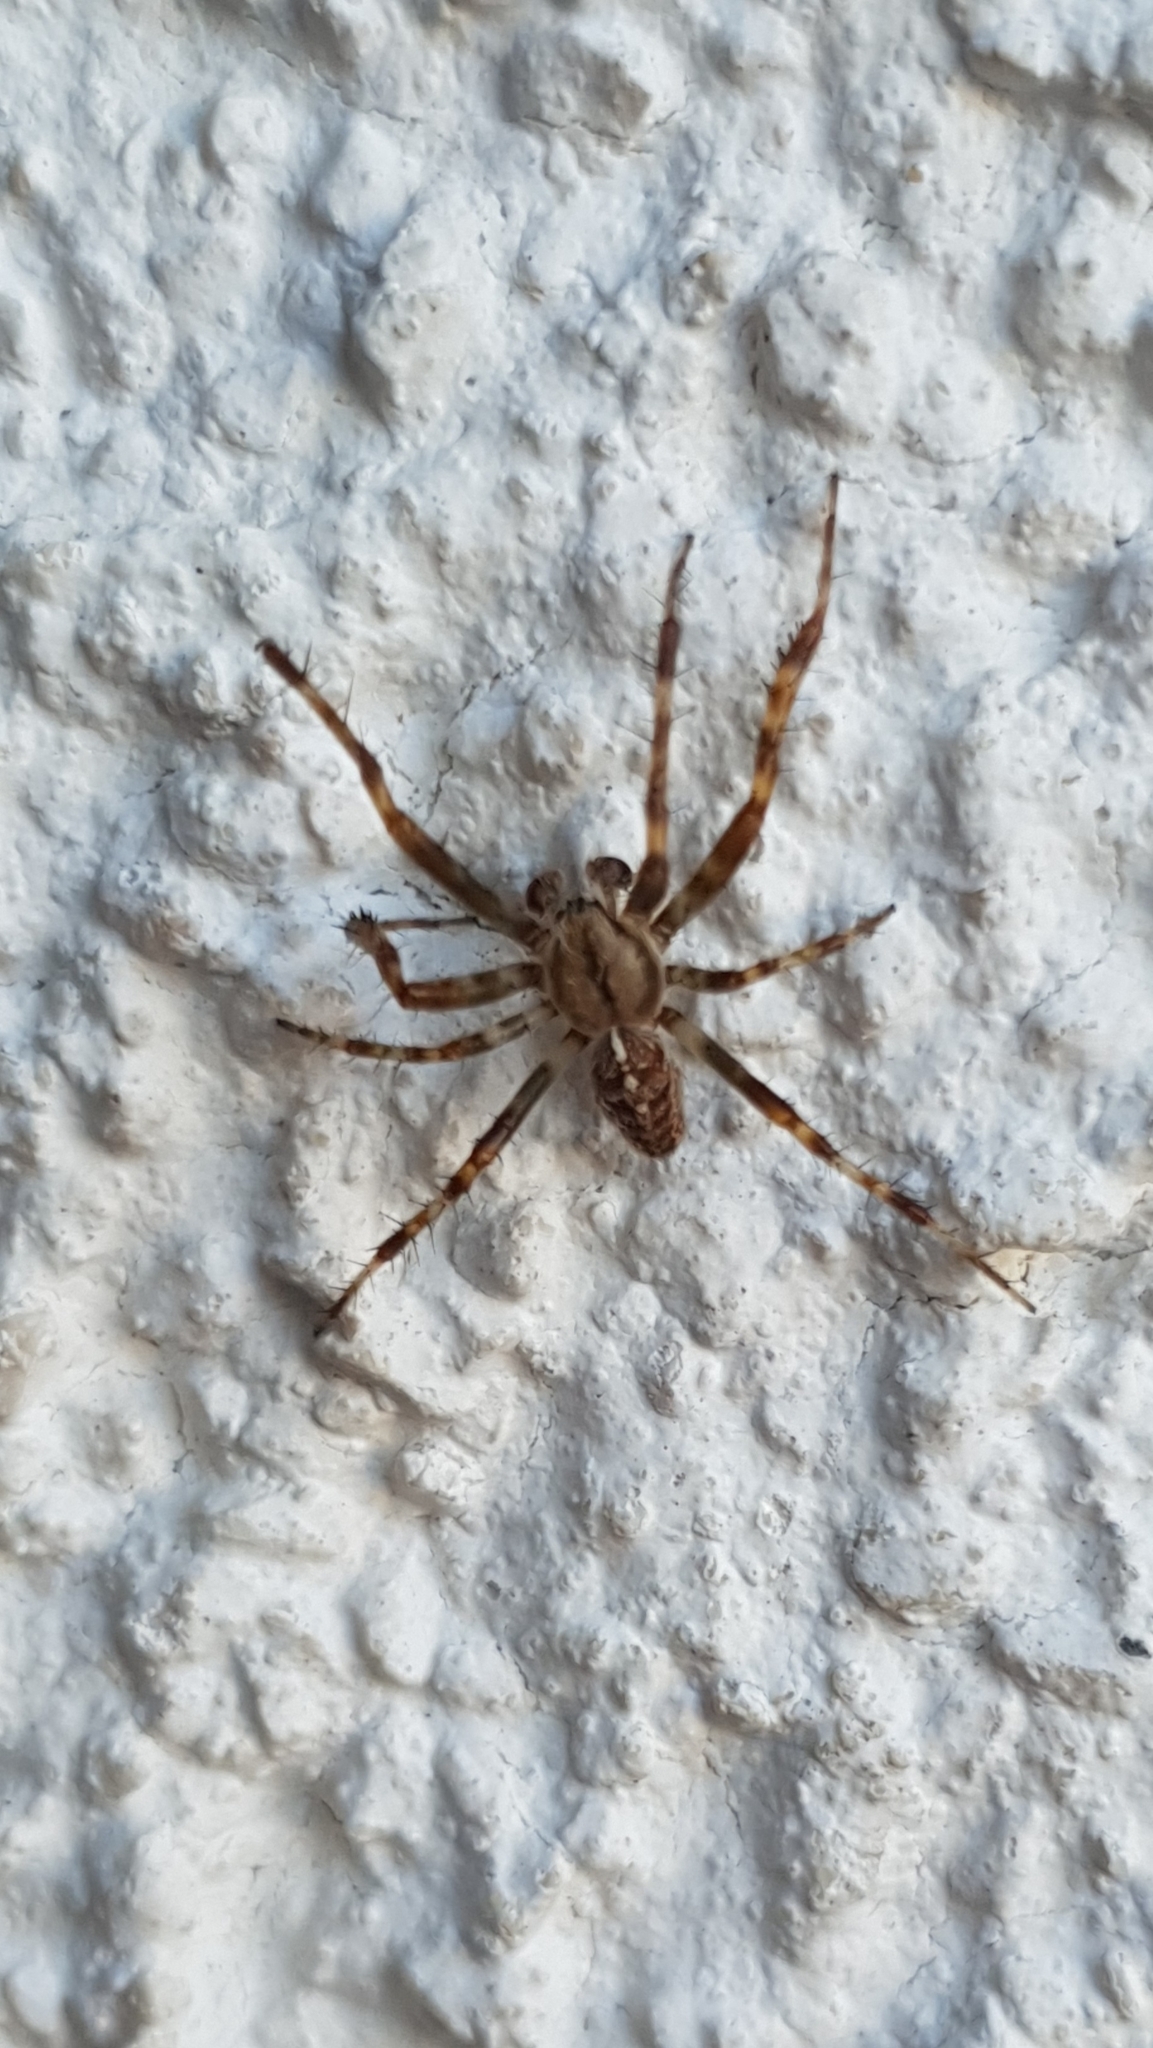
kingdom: Animalia
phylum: Arthropoda
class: Arachnida
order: Araneae
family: Araneidae
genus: Araneus
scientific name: Araneus diadematus
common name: Cross orbweaver
